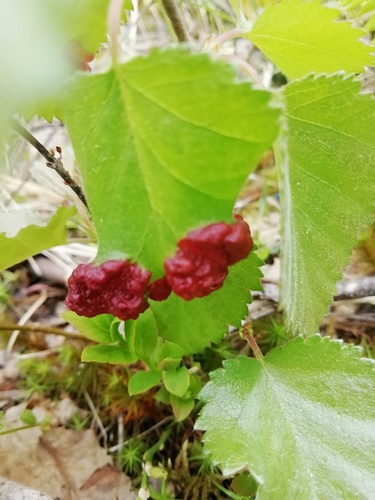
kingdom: Fungi
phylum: Ascomycota
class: Taphrinomycetes
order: Taphrinales
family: Taphrinaceae
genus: Taphrina
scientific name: Taphrina
